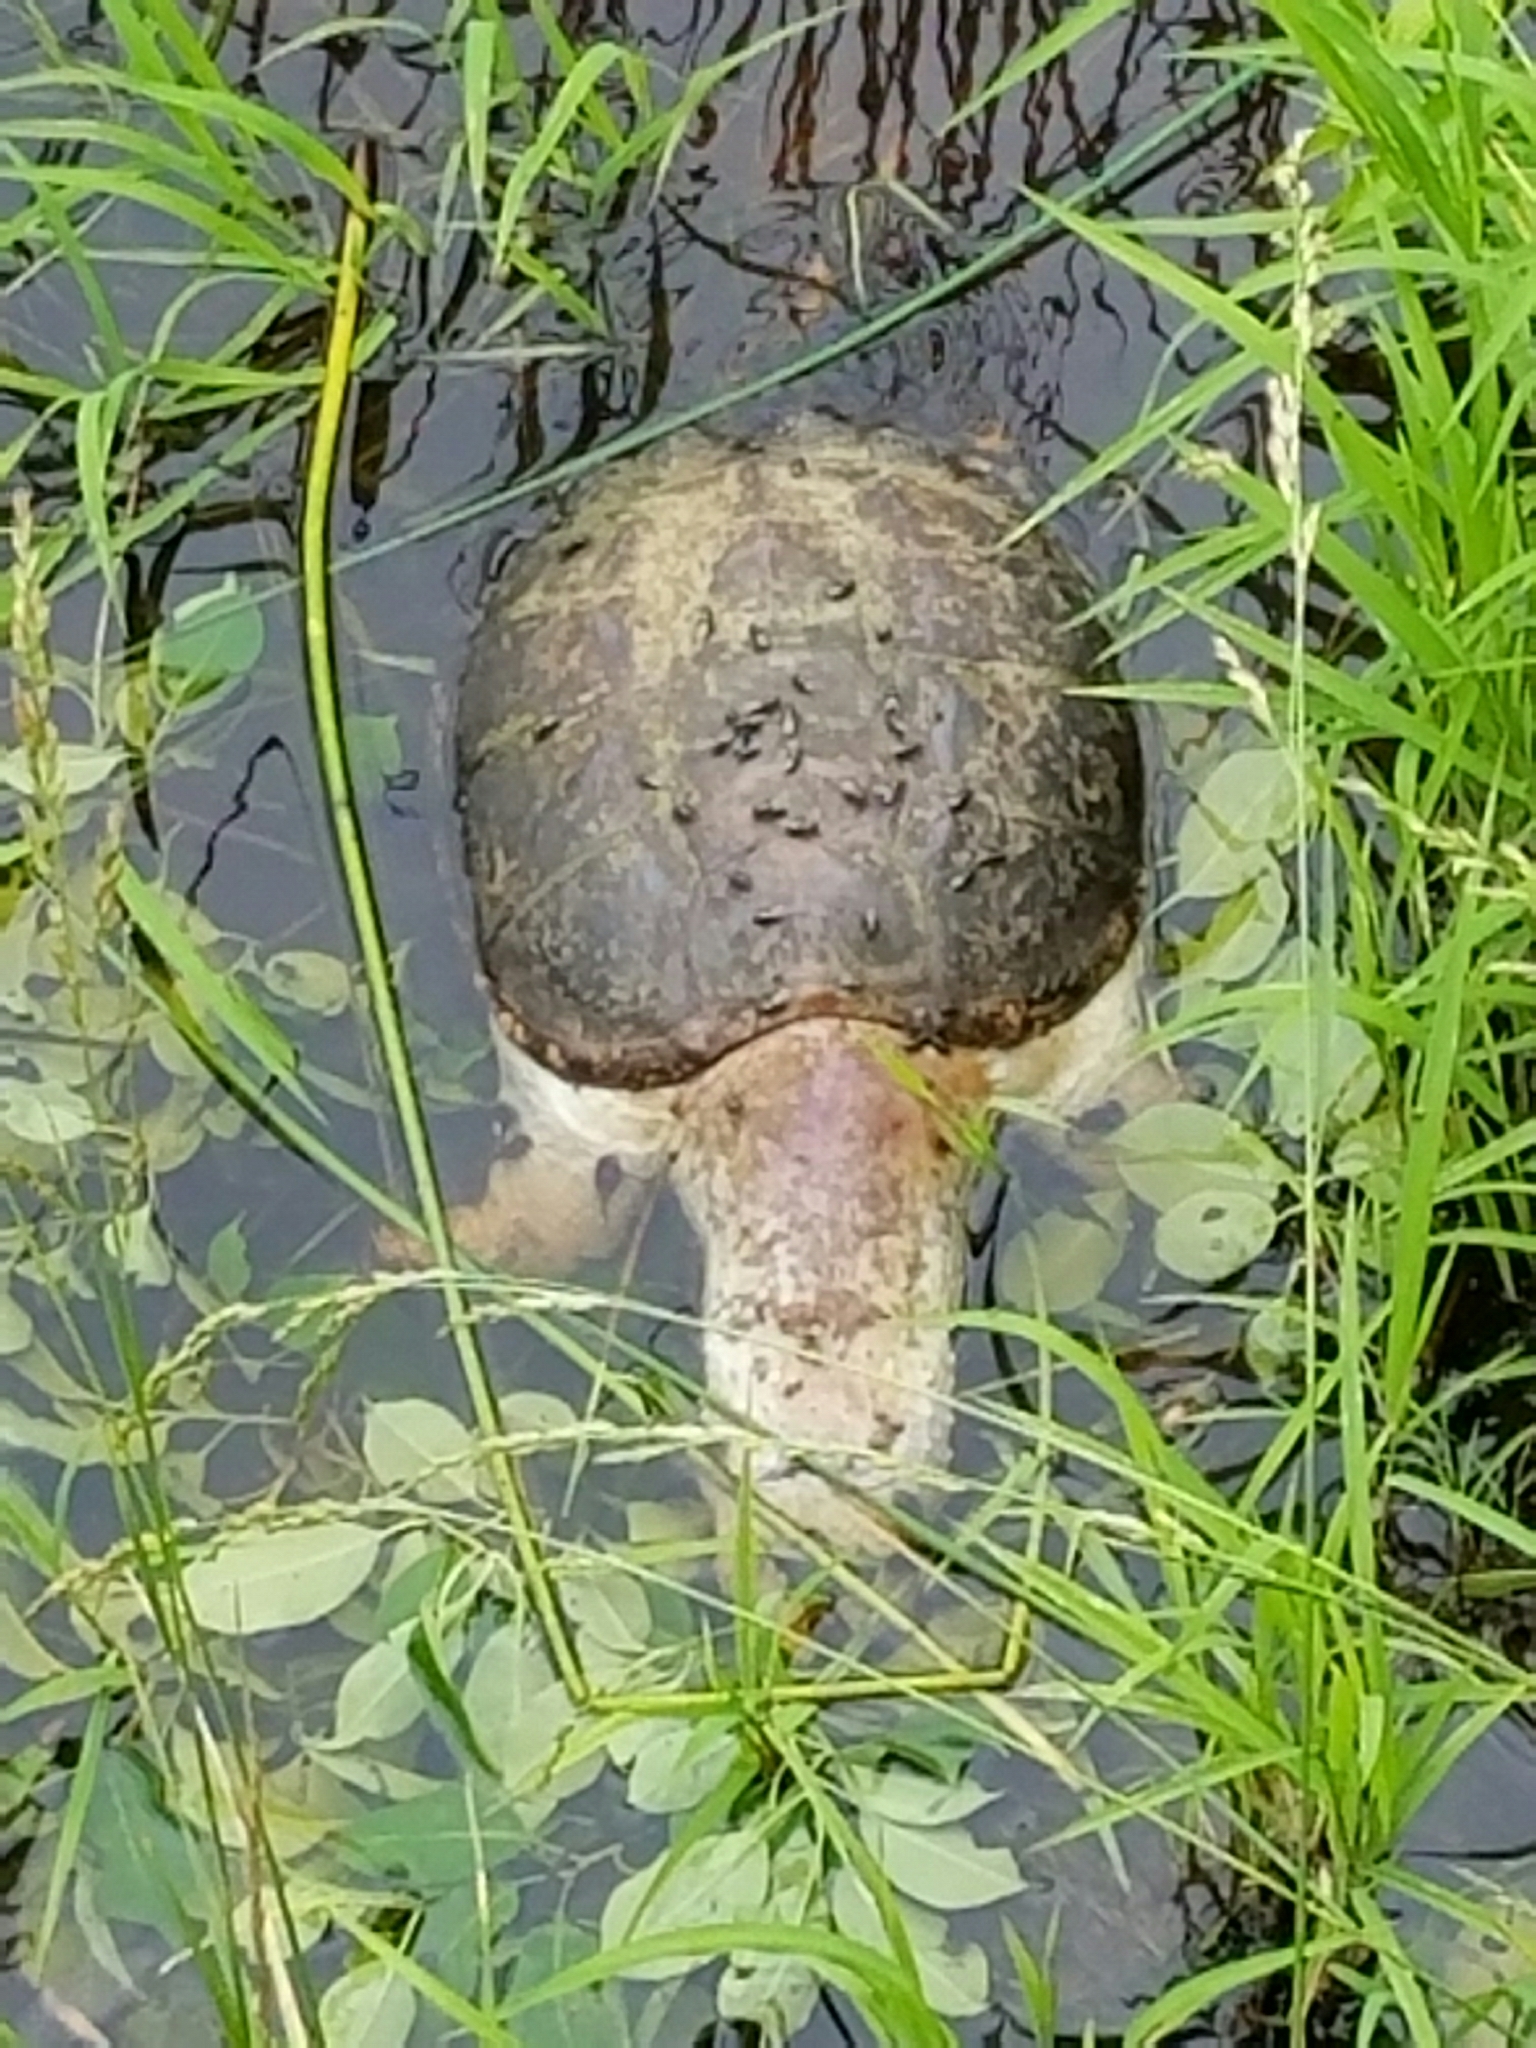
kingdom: Animalia
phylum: Chordata
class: Testudines
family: Chelydridae
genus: Chelydra
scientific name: Chelydra serpentina
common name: Common snapping turtle
